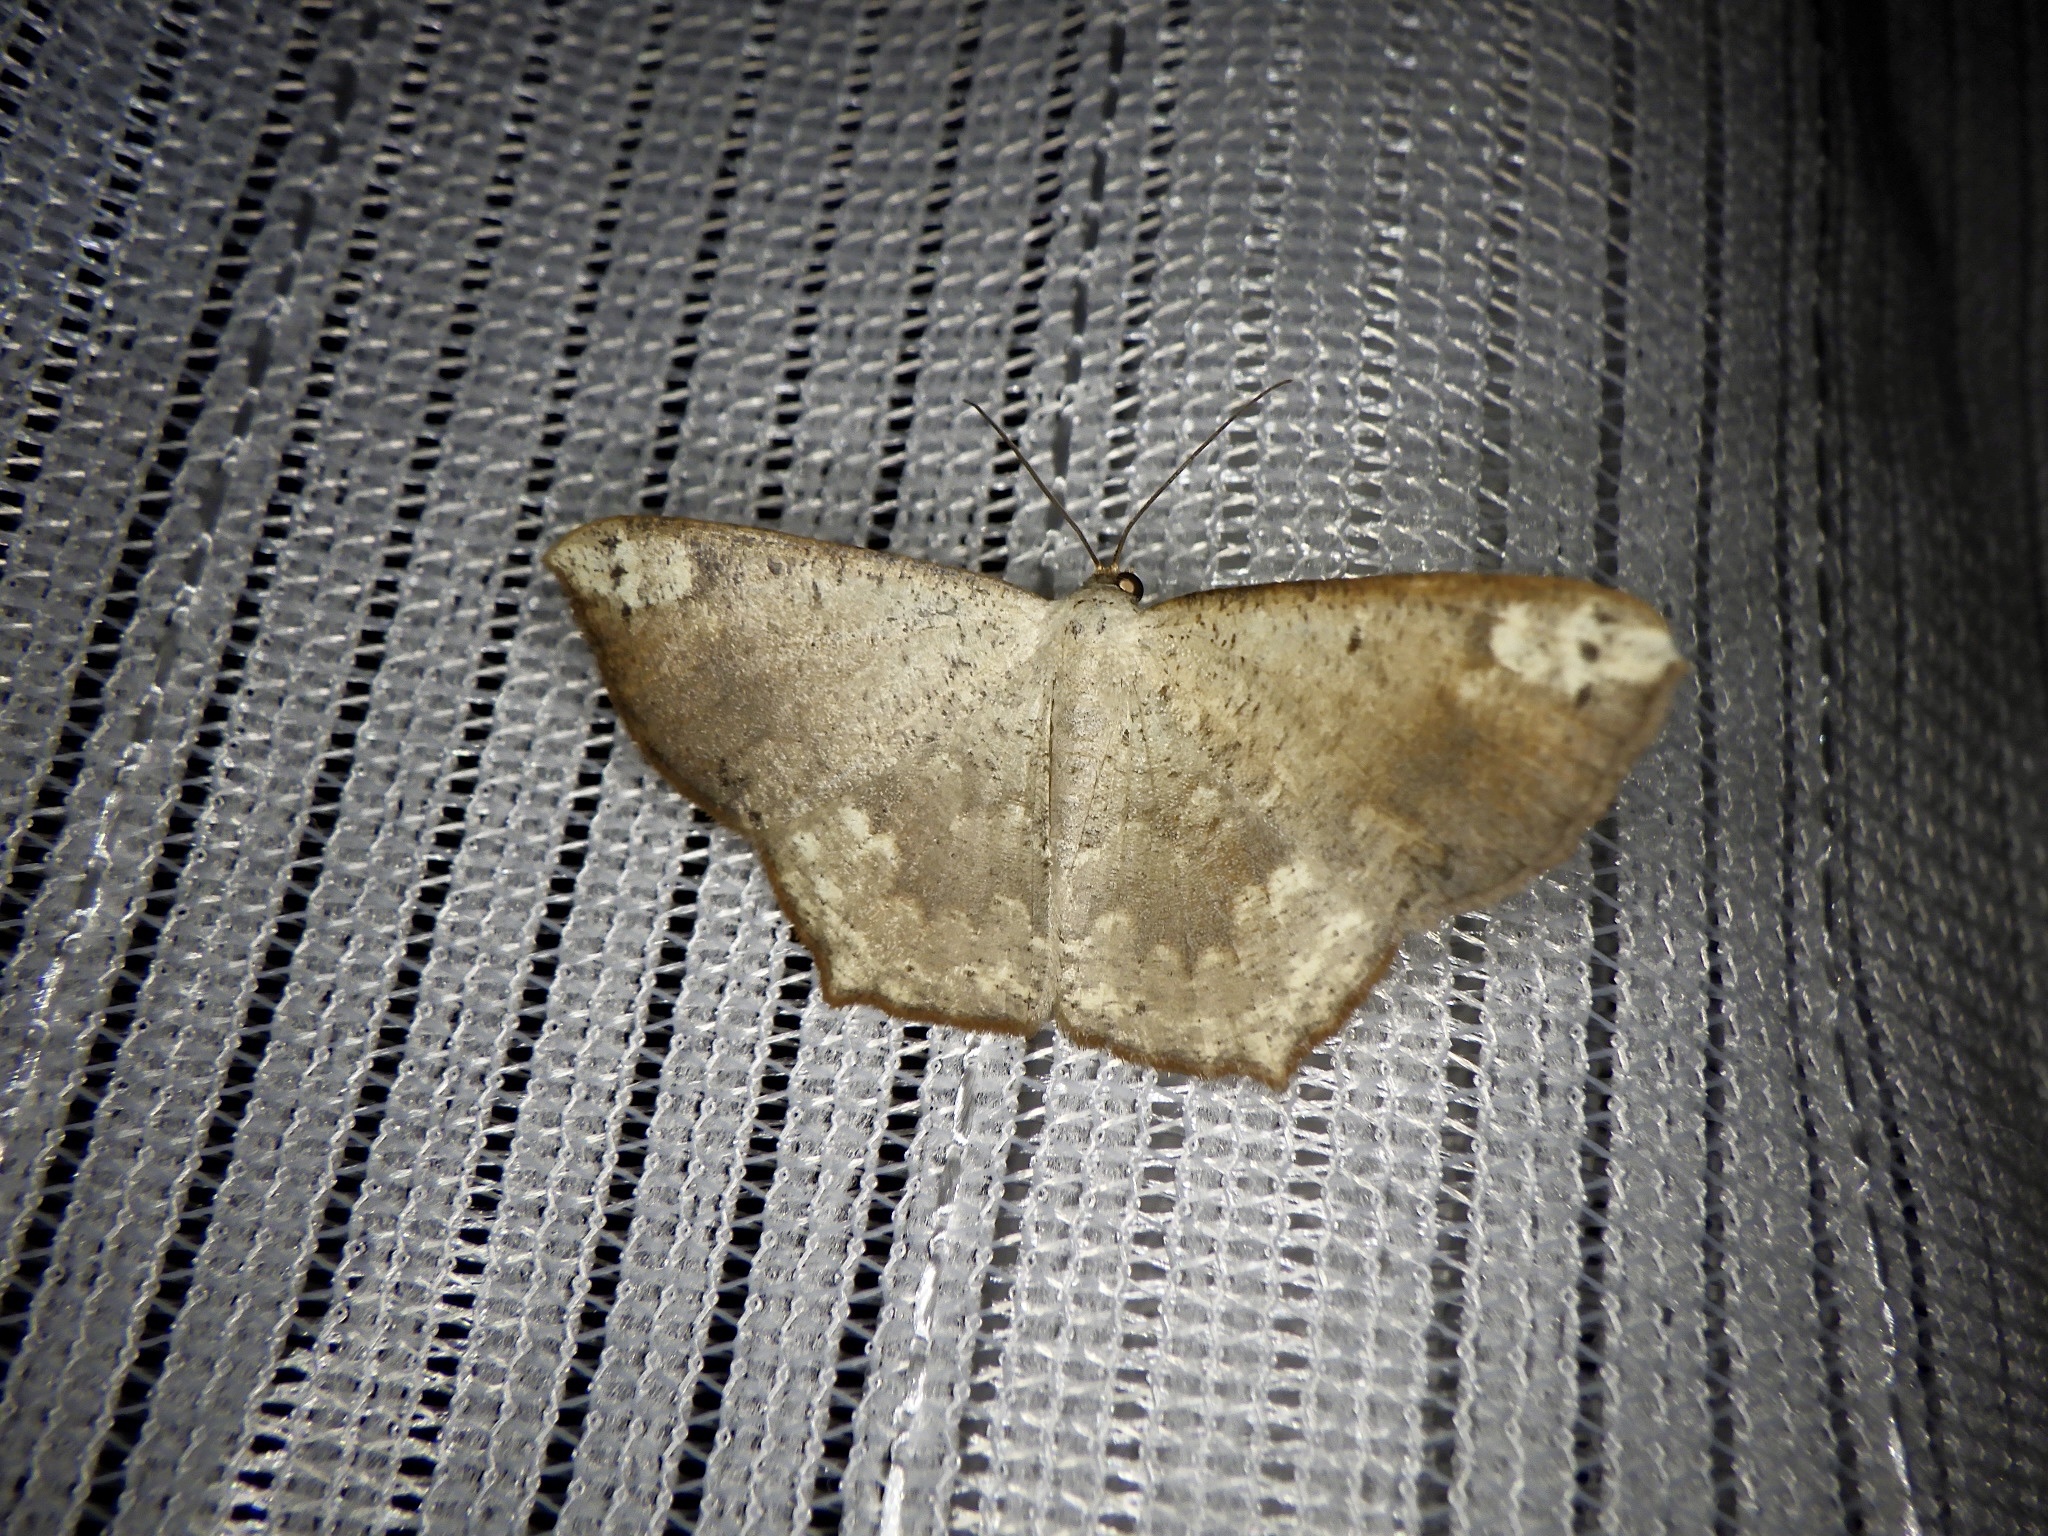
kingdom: Animalia
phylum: Arthropoda
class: Insecta
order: Lepidoptera
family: Geometridae
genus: Peratostega
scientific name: Peratostega deletaria
